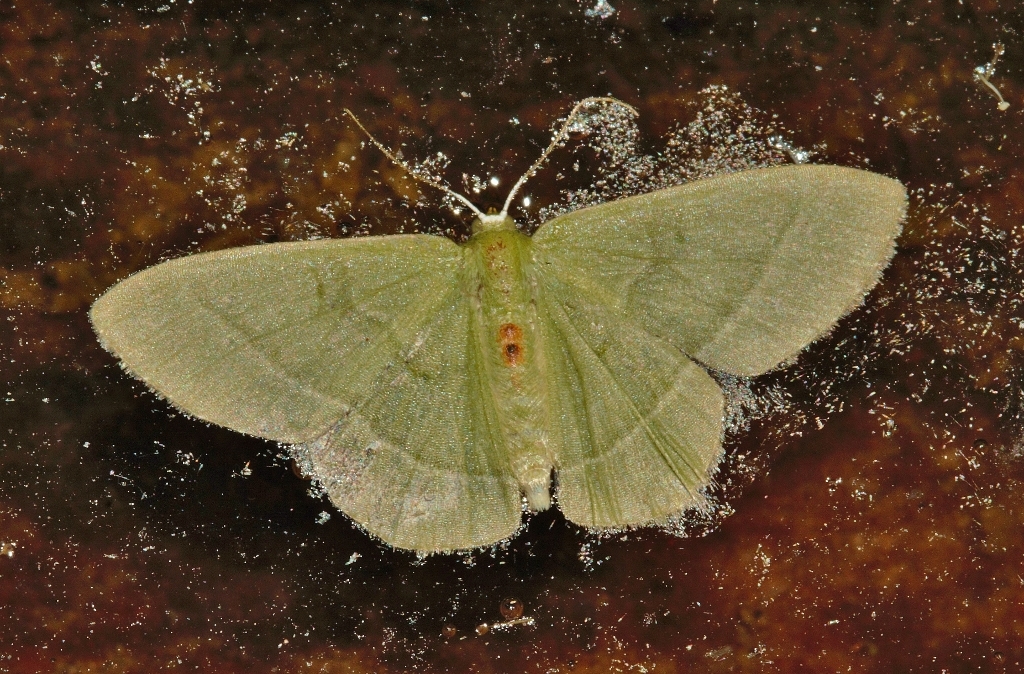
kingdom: Animalia
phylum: Arthropoda
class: Insecta
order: Lepidoptera
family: Geometridae
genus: Chlorissa
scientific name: Chlorissa attenuata
